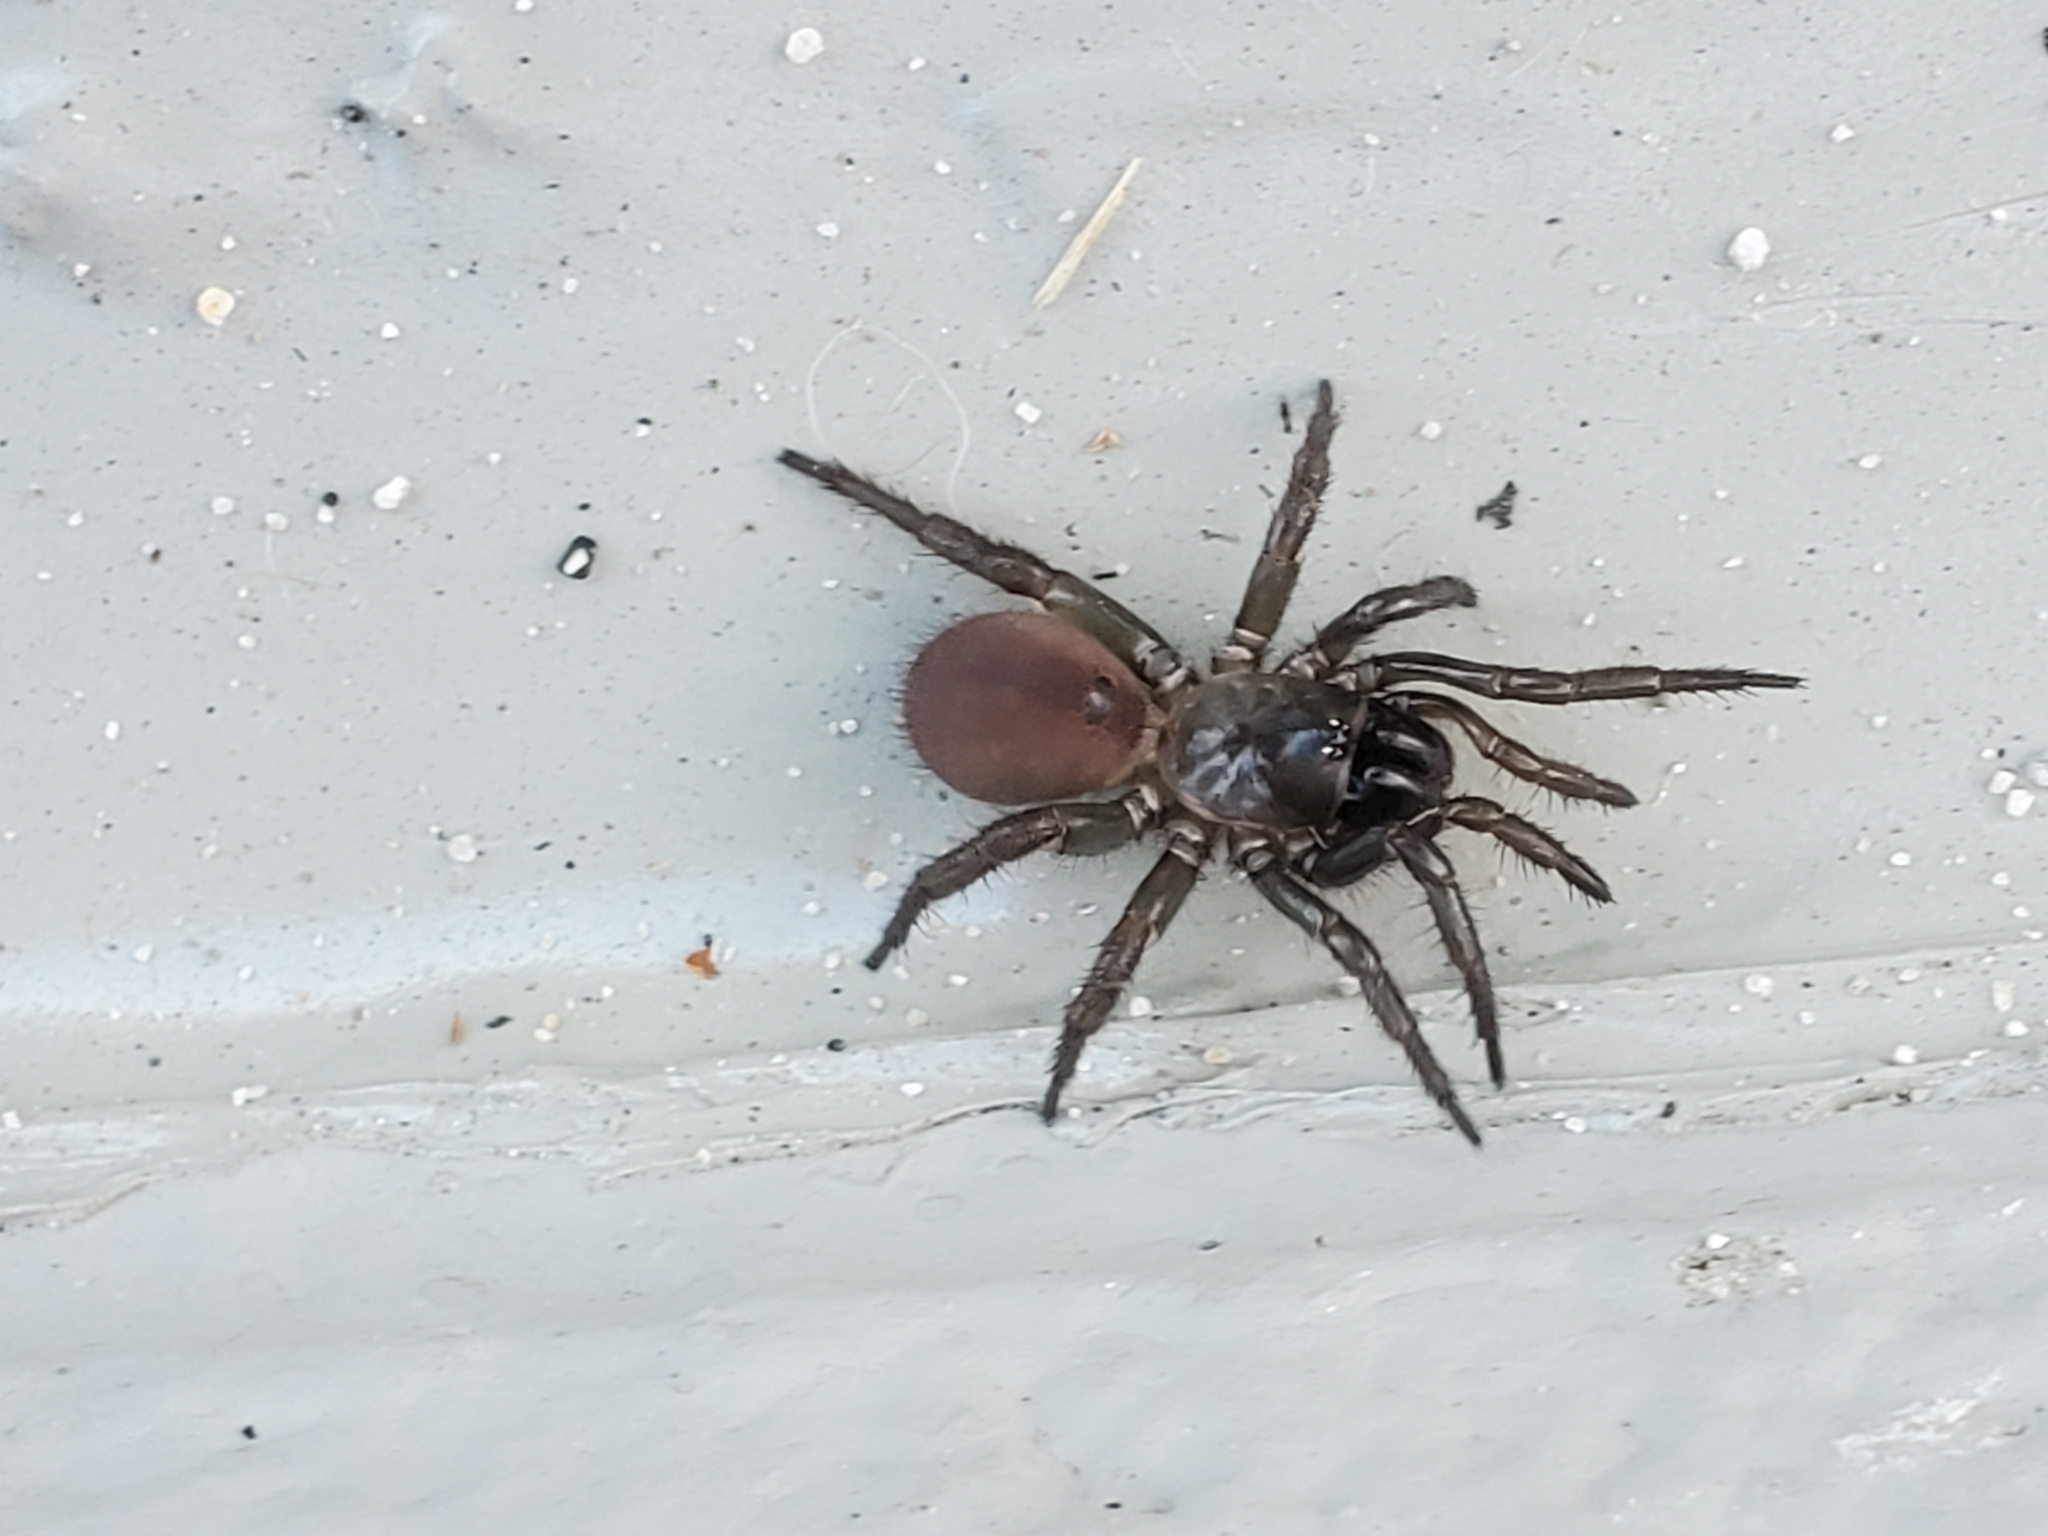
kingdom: Animalia
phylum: Arthropoda
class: Arachnida
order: Araneae
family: Antrodiaetidae
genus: Antrodiaetus
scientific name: Antrodiaetus unicolor
